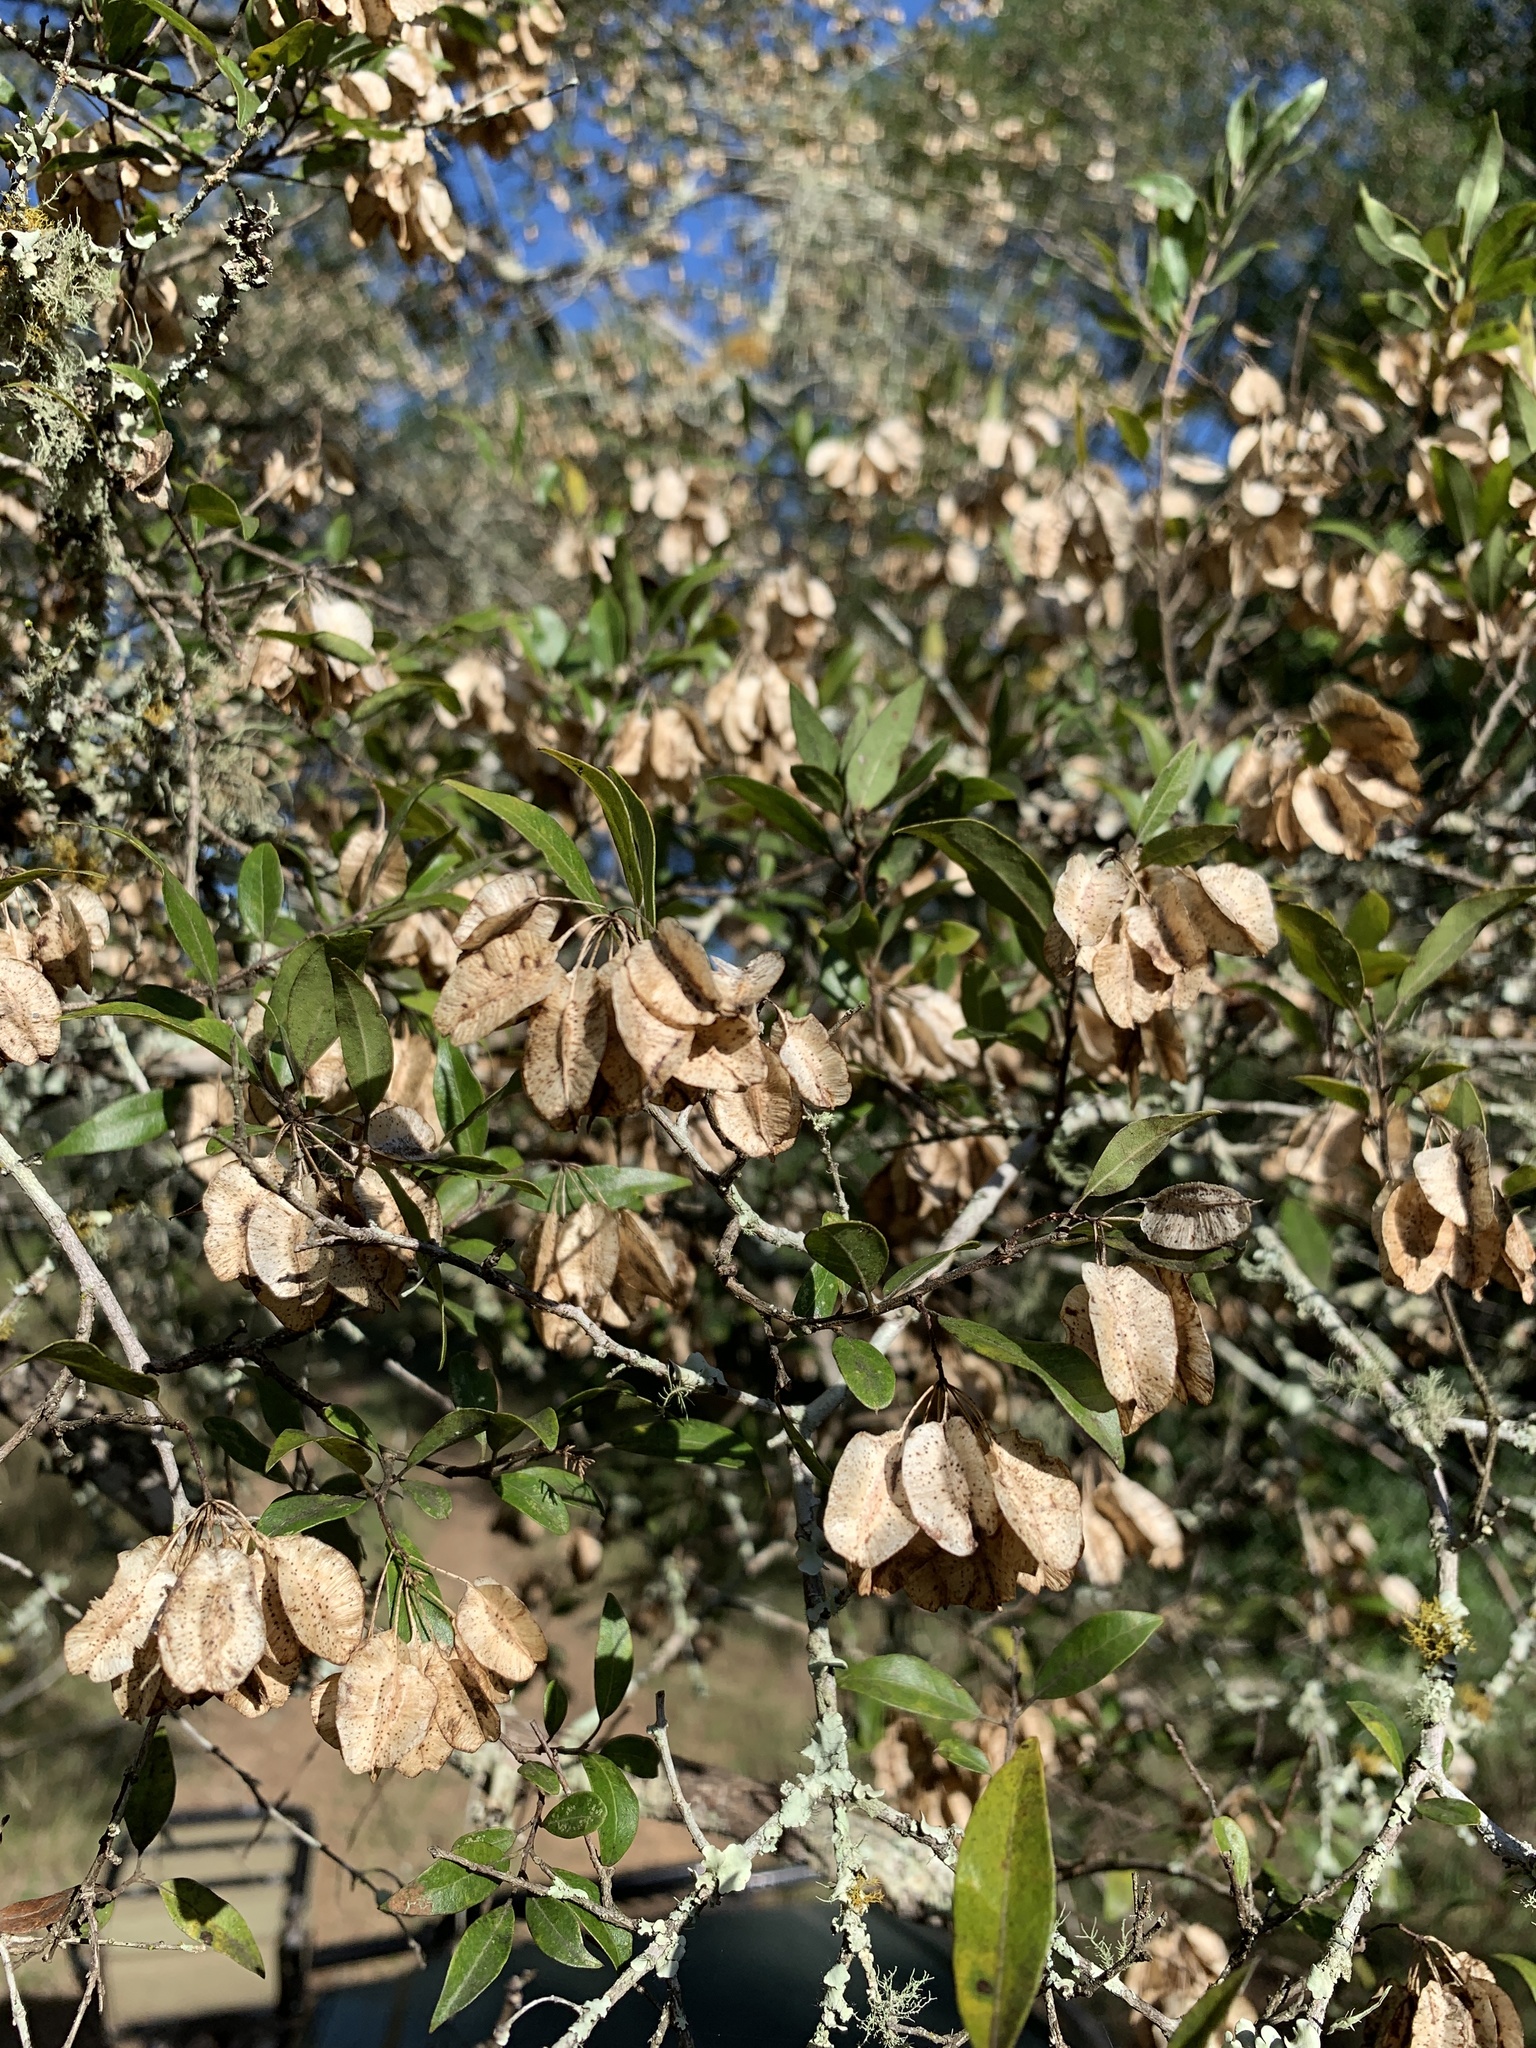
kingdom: Plantae
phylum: Tracheophyta
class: Magnoliopsida
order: Myrtales
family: Combretaceae
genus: Terminalia
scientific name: Terminalia myrtifolia
